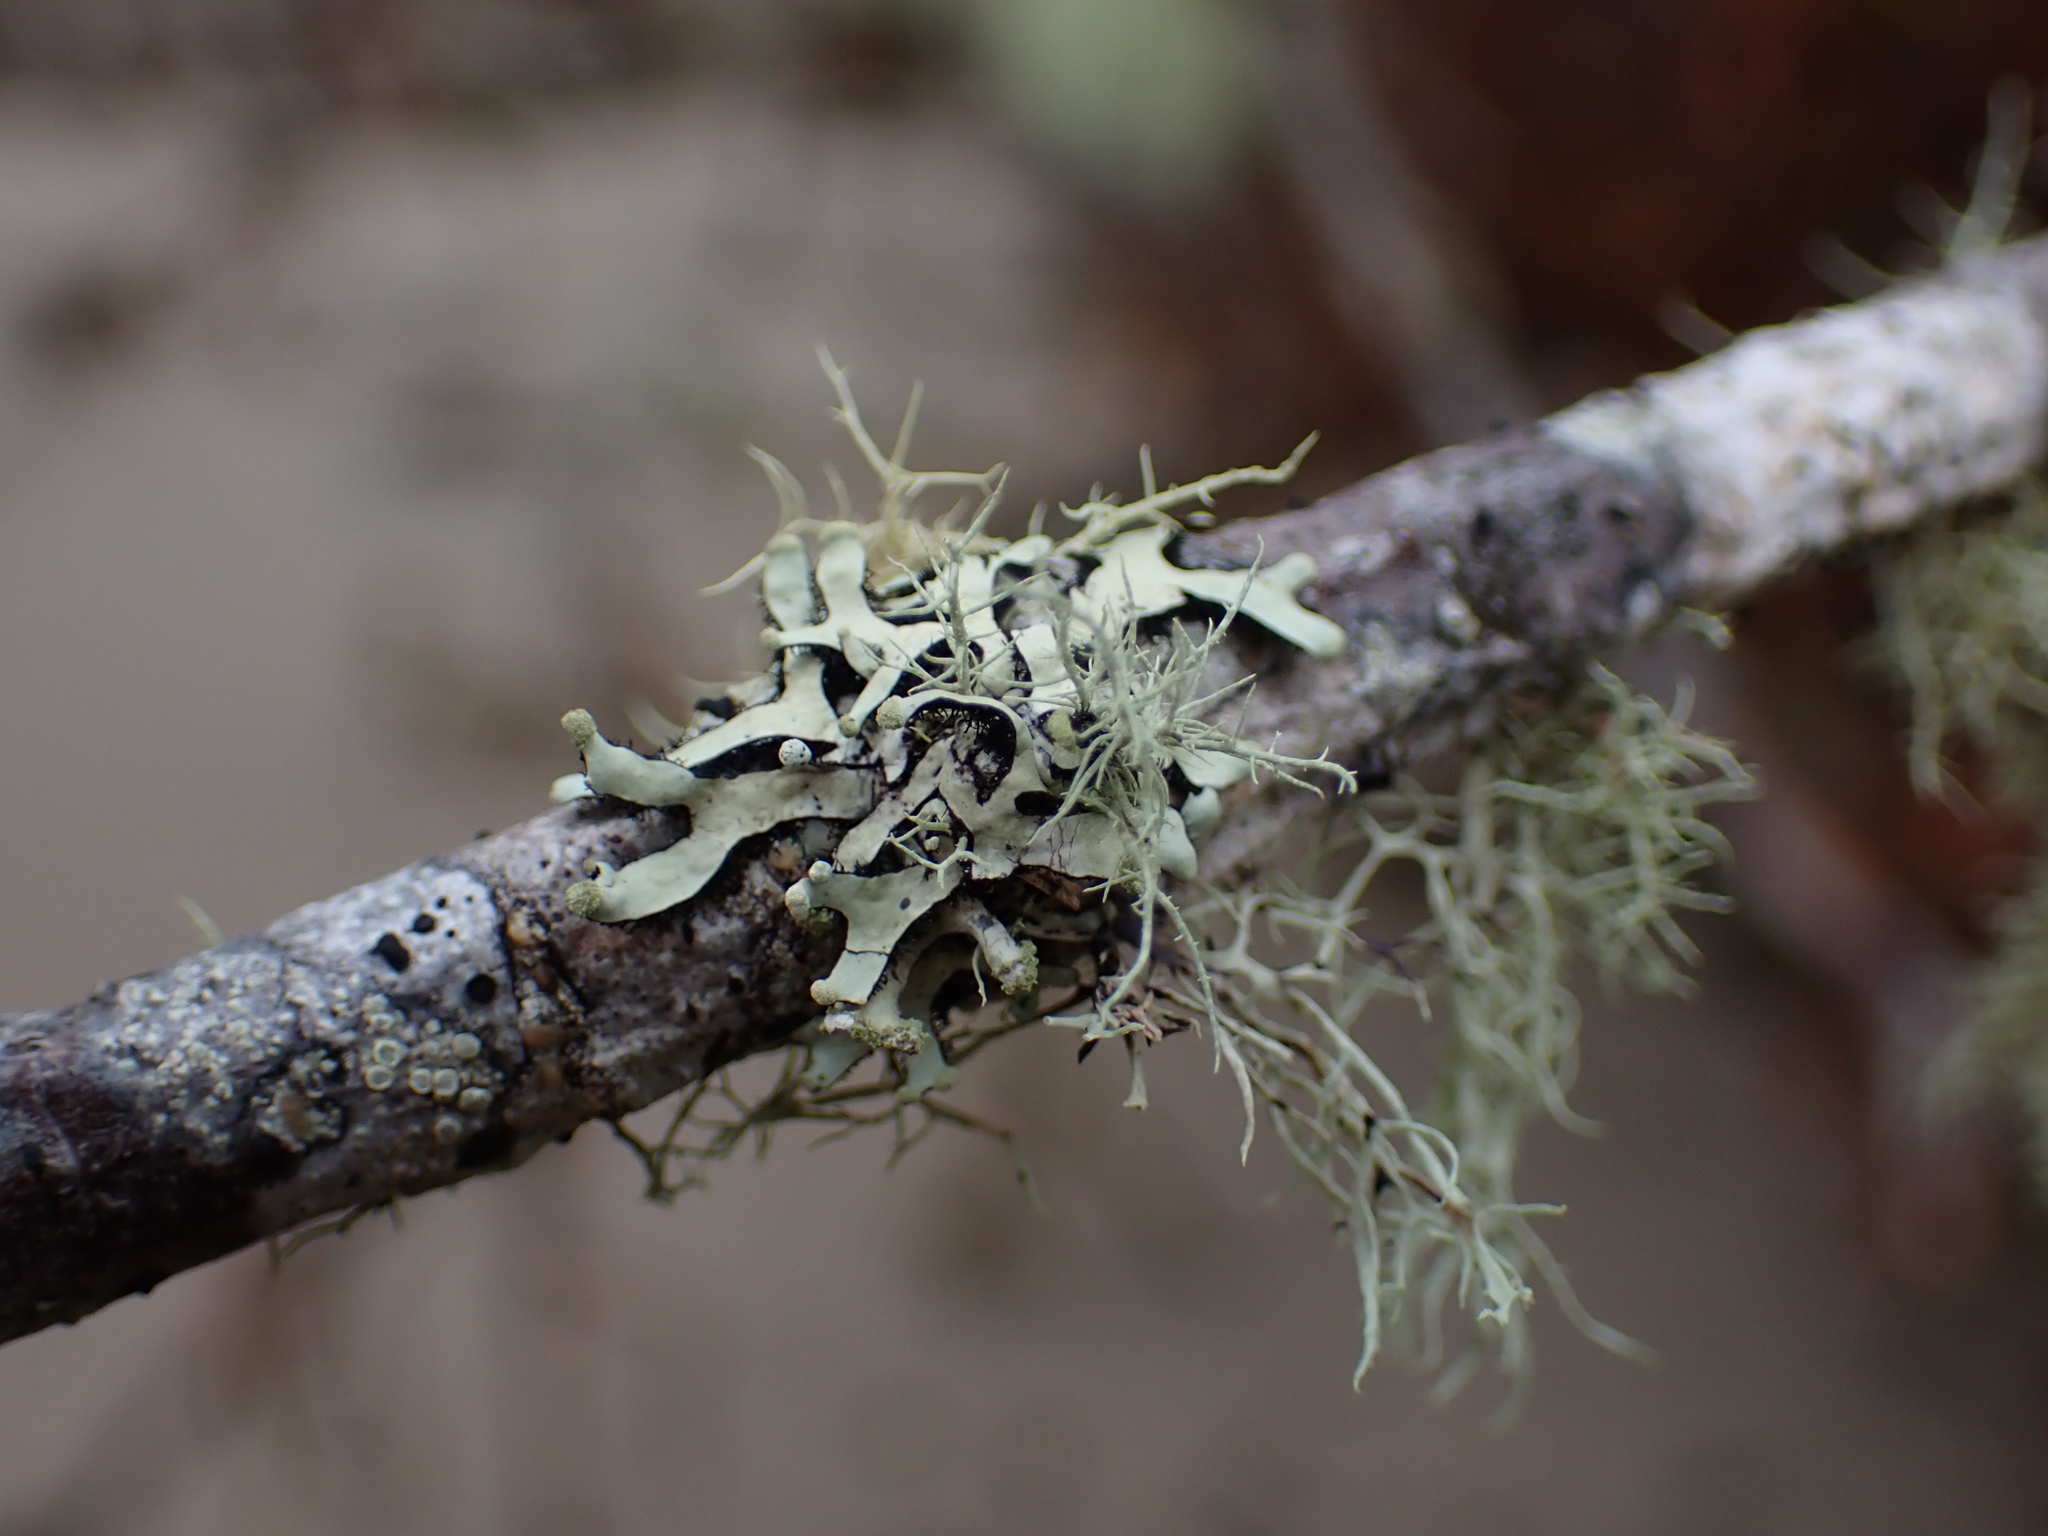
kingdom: Fungi
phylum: Ascomycota
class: Lecanoromycetes
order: Lecanorales
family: Parmeliaceae
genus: Hypotrachyna
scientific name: Hypotrachyna sinuosa
